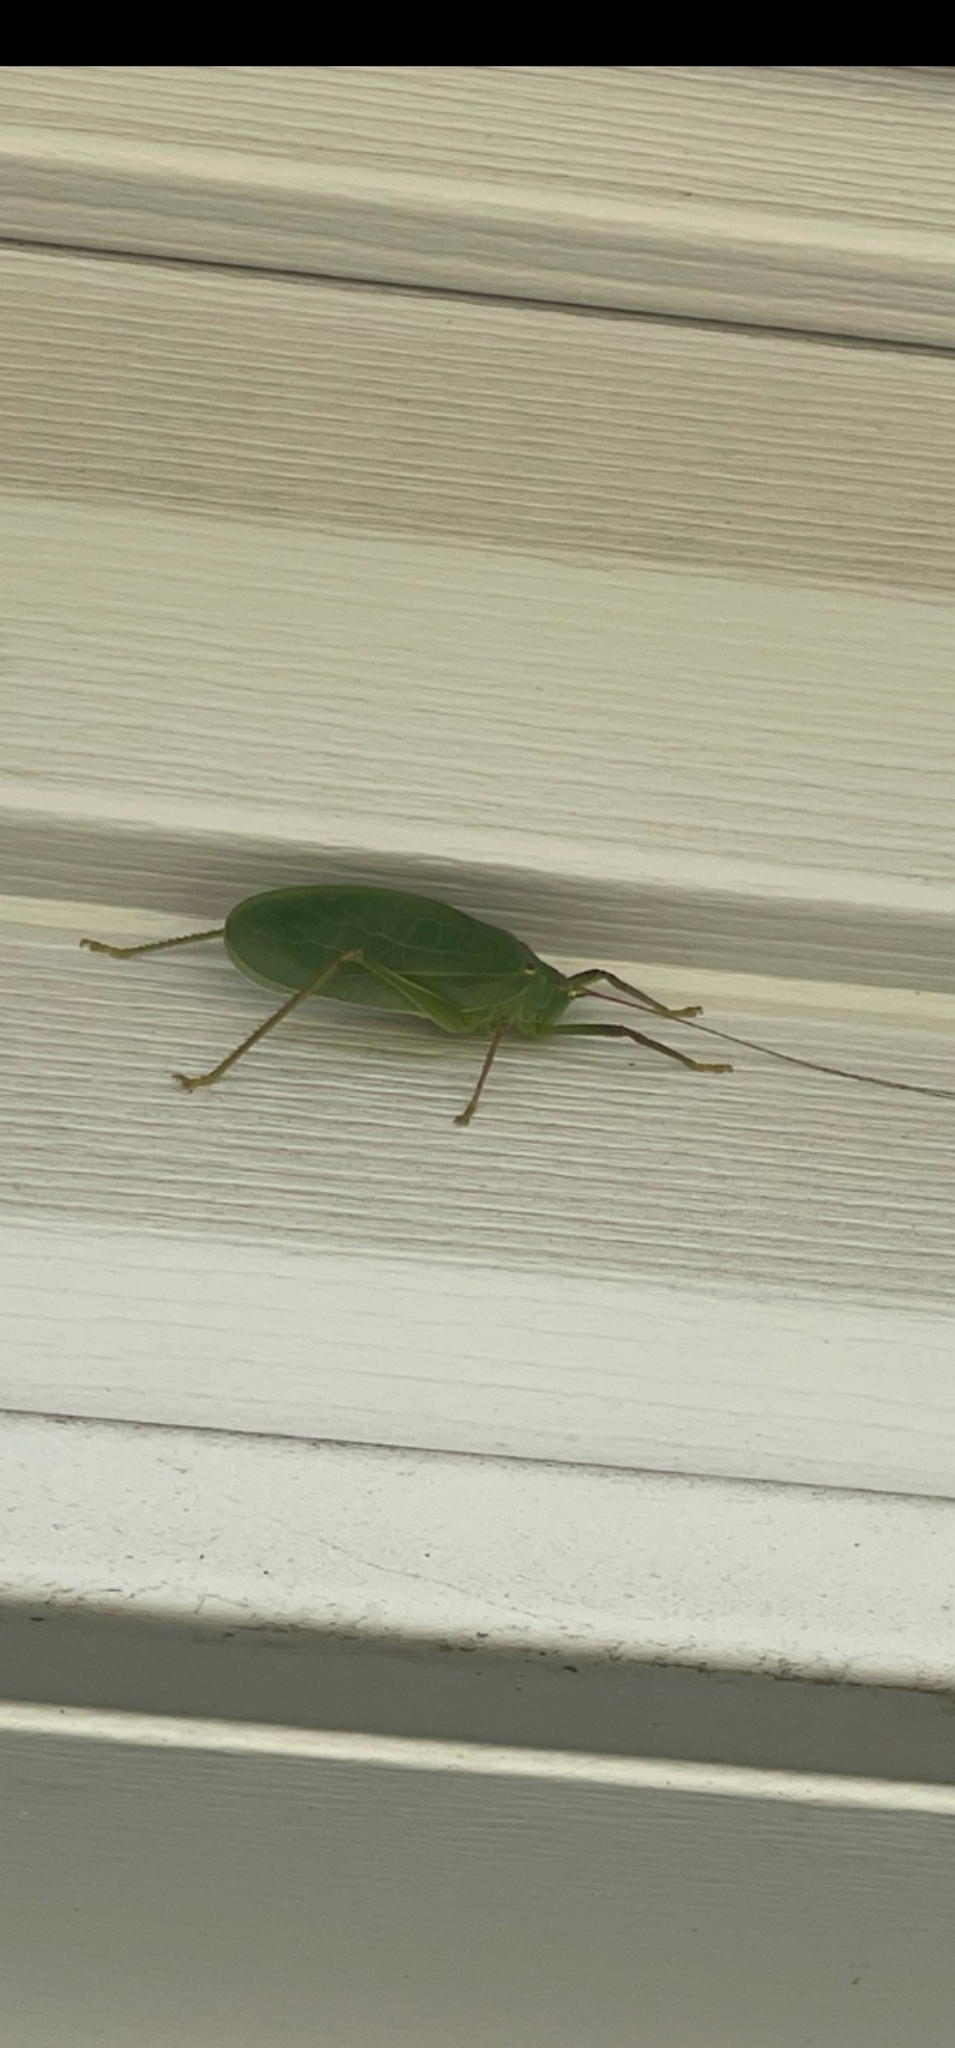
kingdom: Animalia
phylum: Arthropoda
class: Insecta
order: Orthoptera
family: Tettigoniidae
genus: Pterophylla
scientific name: Pterophylla camellifolia
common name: Common true katydid
